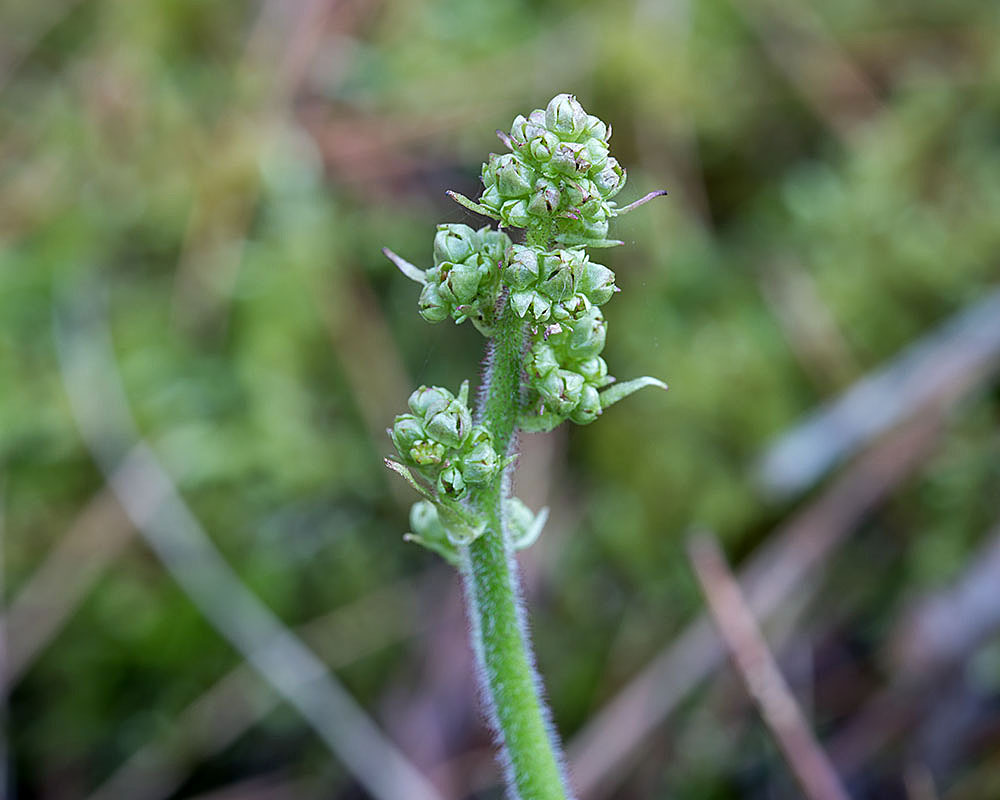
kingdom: Plantae
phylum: Tracheophyta
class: Magnoliopsida
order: Saxifragales
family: Saxifragaceae
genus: Micranthes
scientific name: Micranthes pensylvanica
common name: Marsh saxifrage
